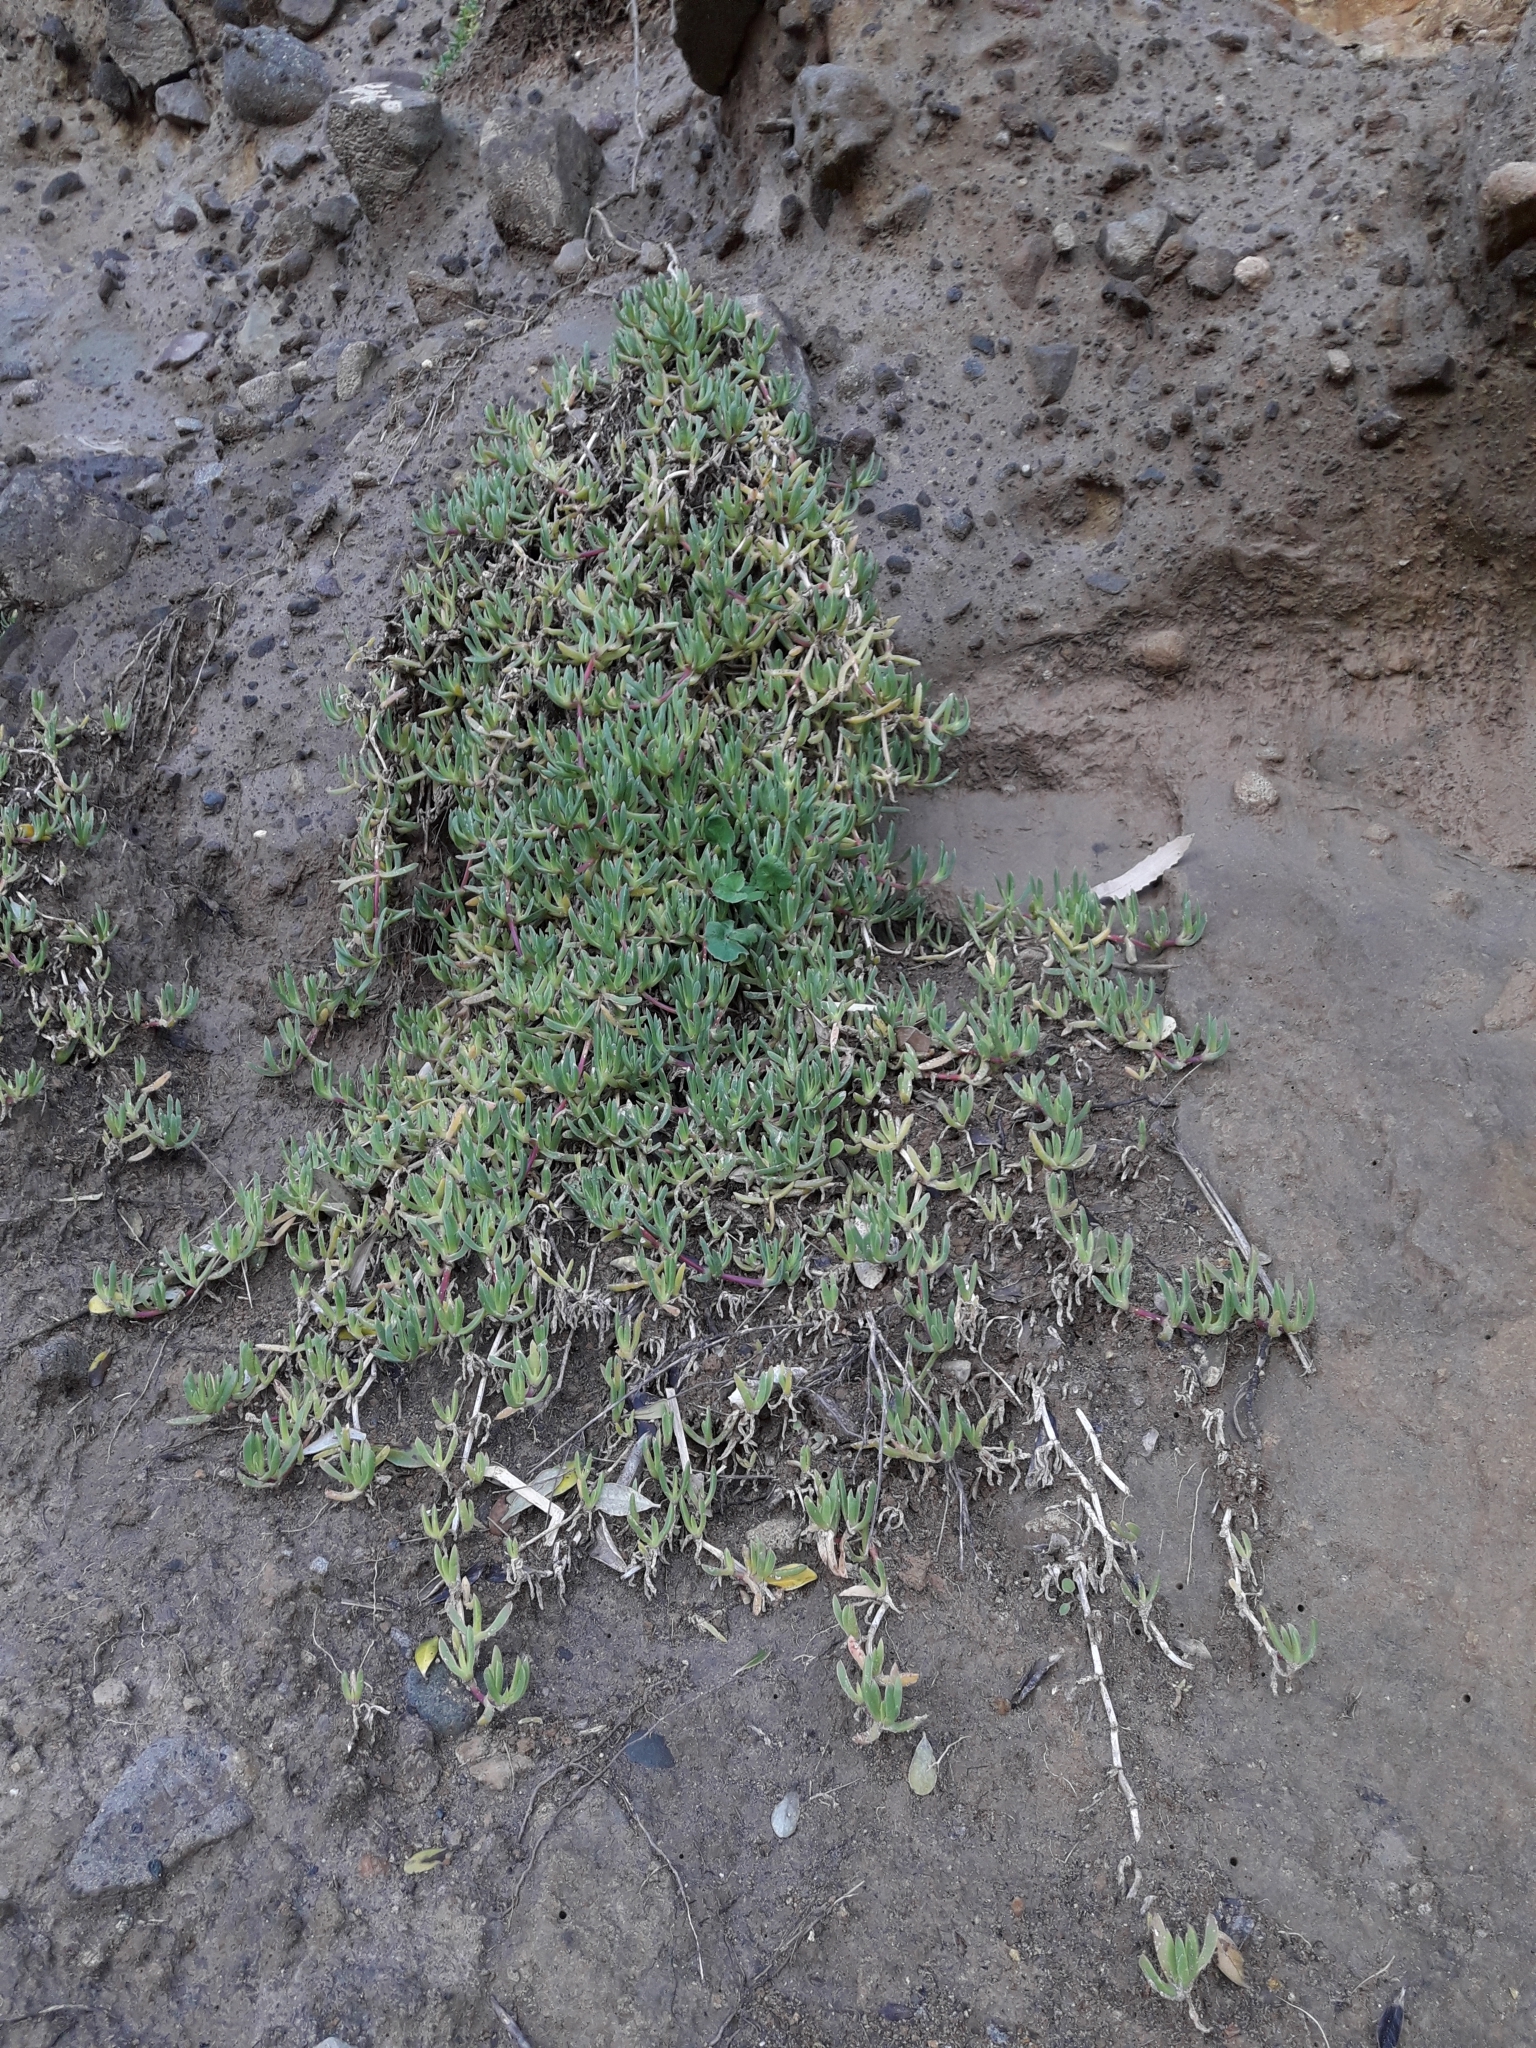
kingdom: Plantae
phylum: Tracheophyta
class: Magnoliopsida
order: Caryophyllales
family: Aizoaceae
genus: Disphyma
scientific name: Disphyma australe
